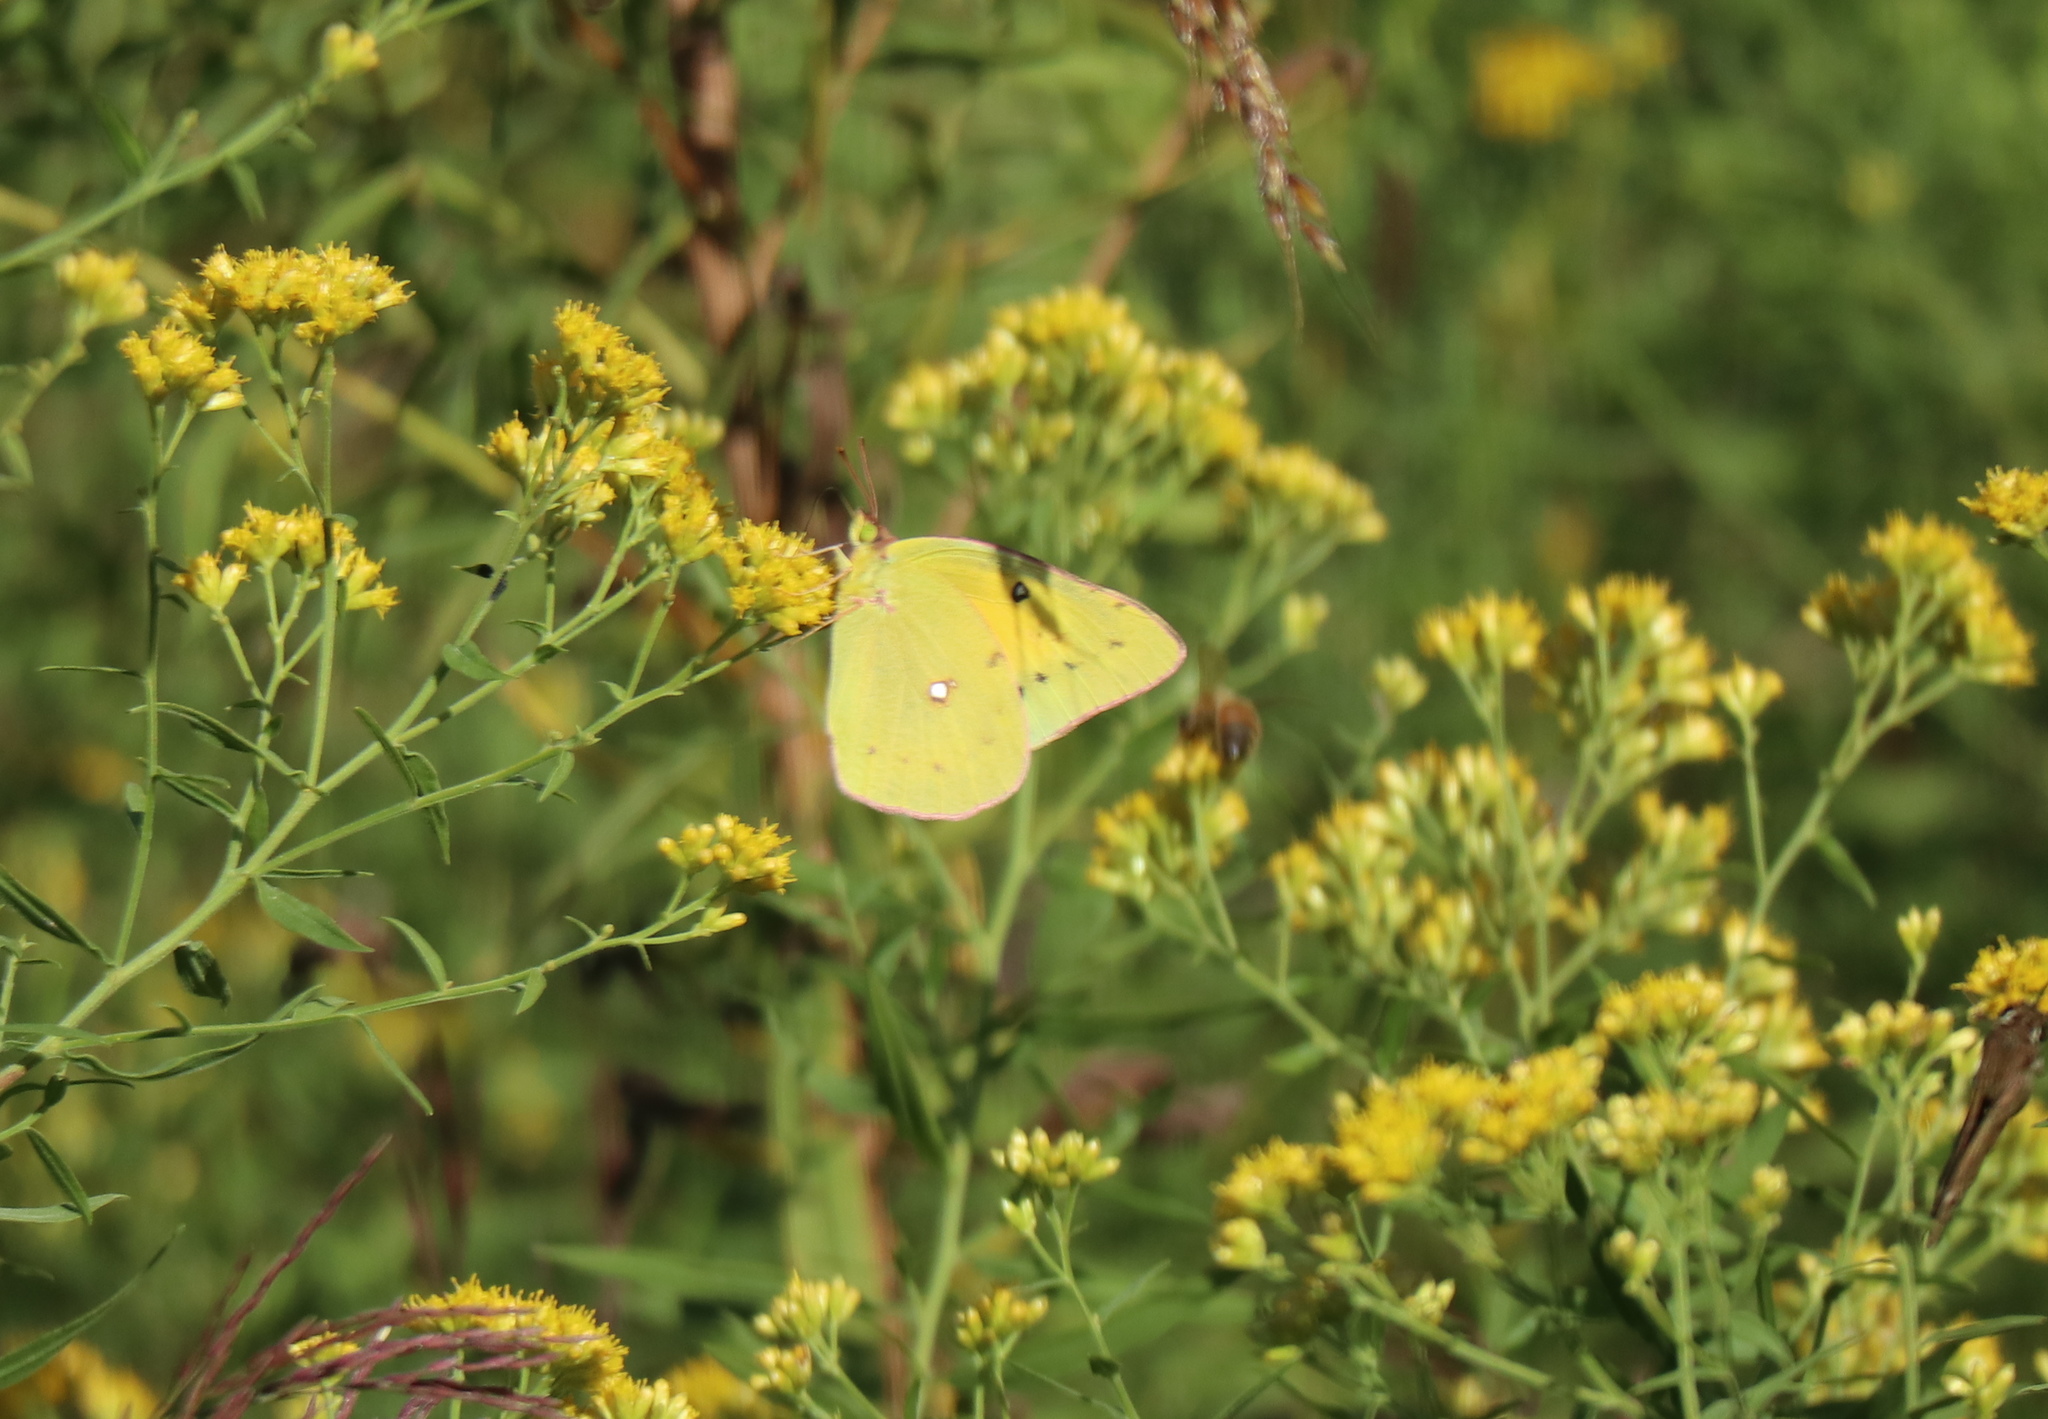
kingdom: Animalia
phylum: Arthropoda
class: Insecta
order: Lepidoptera
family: Pieridae
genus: Colias
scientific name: Colias eurytheme
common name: Alfalfa butterfly
